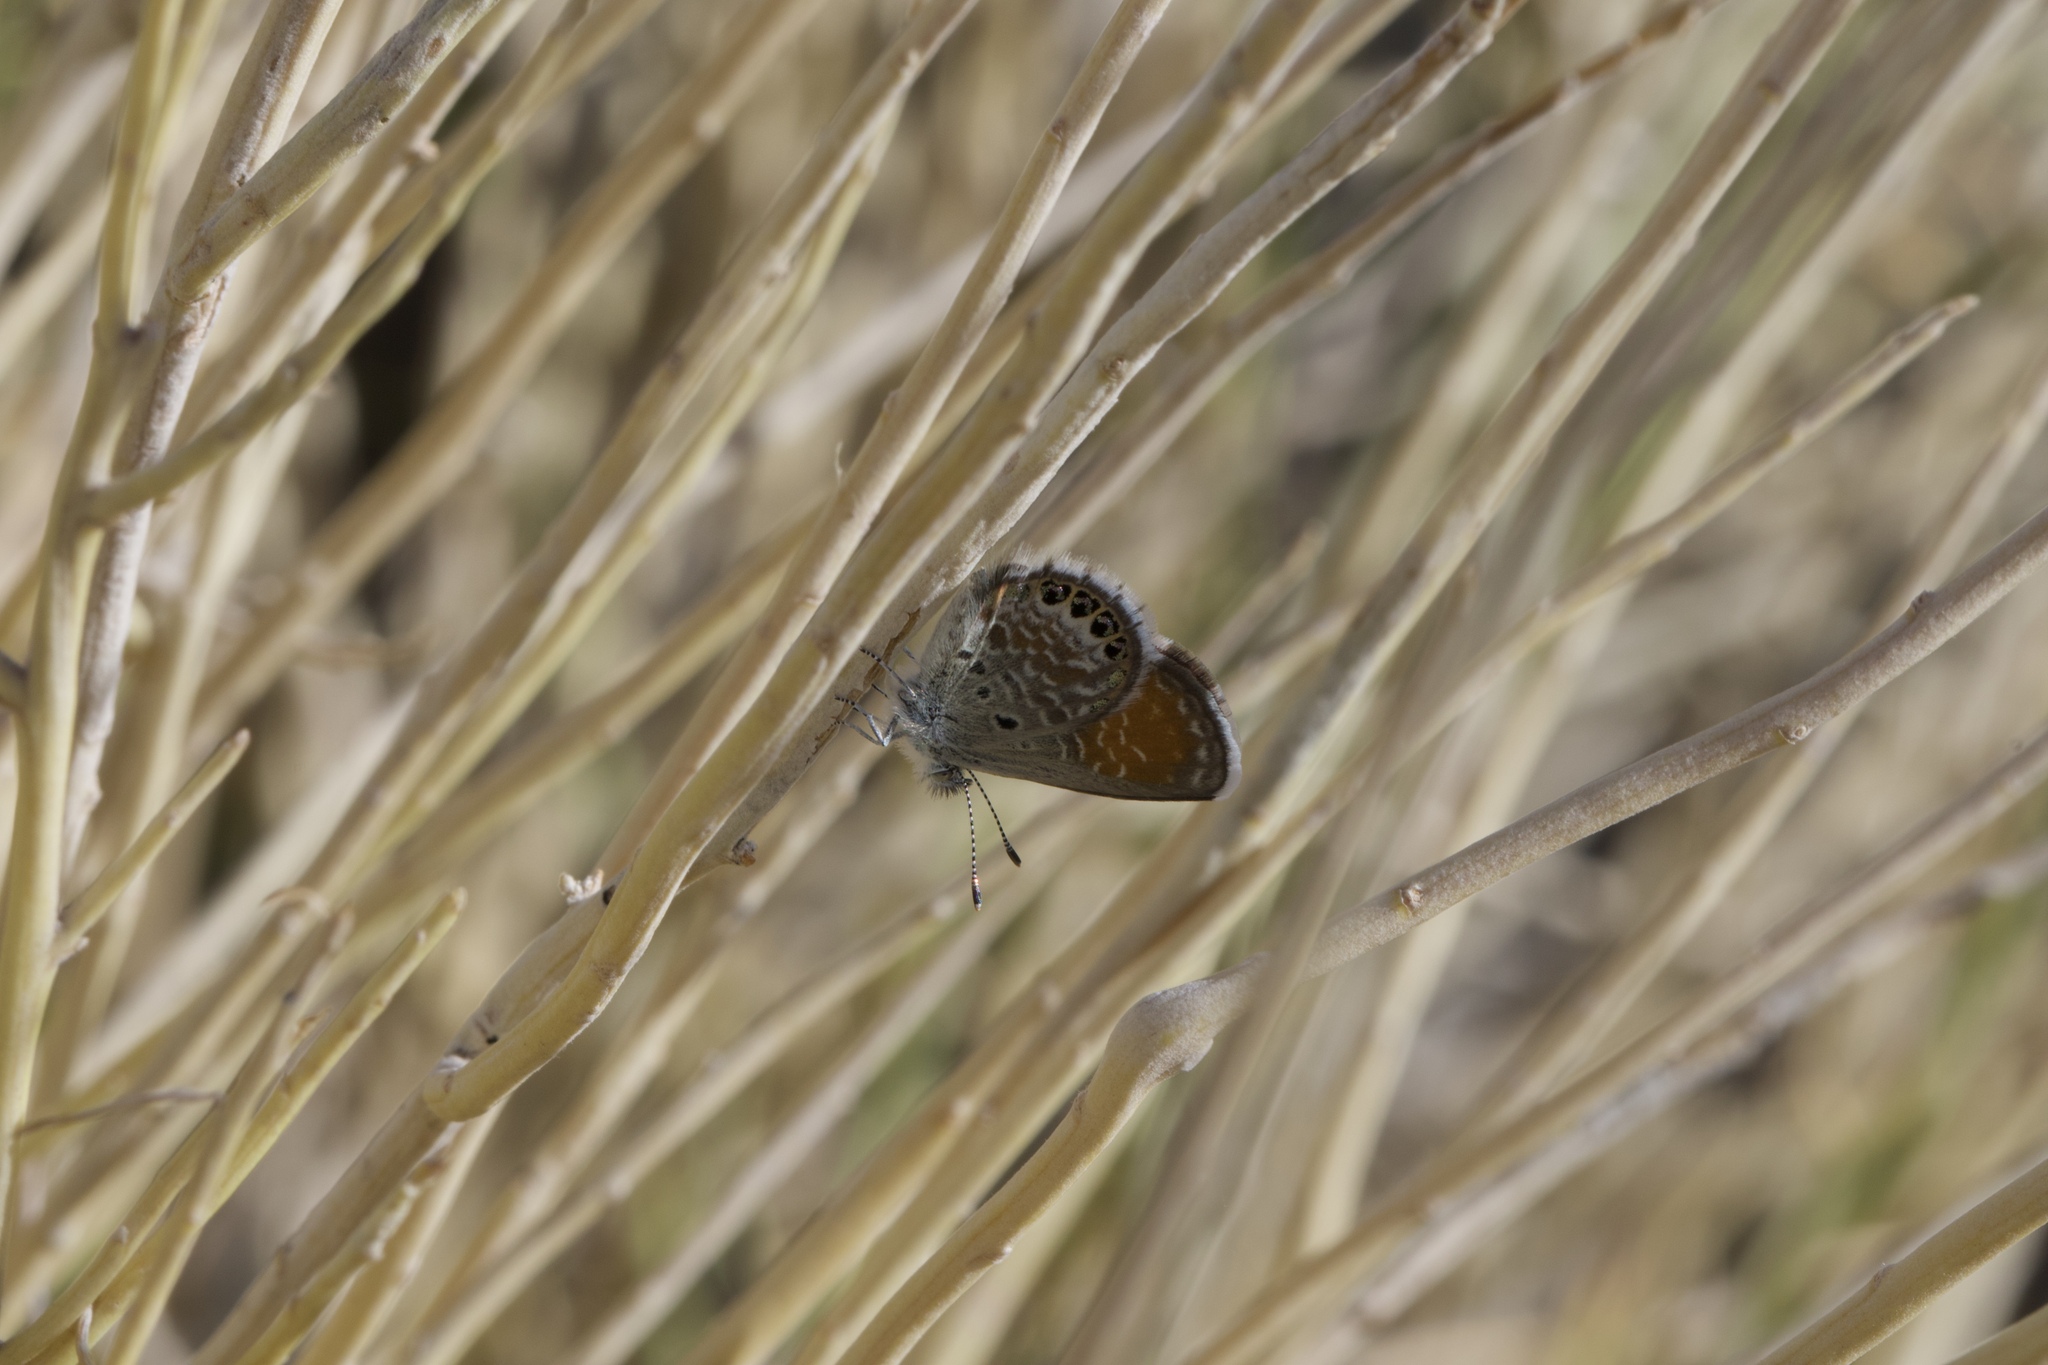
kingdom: Animalia
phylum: Arthropoda
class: Insecta
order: Lepidoptera
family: Lycaenidae
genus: Brephidium
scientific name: Brephidium exilis
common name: Pygmy blue
